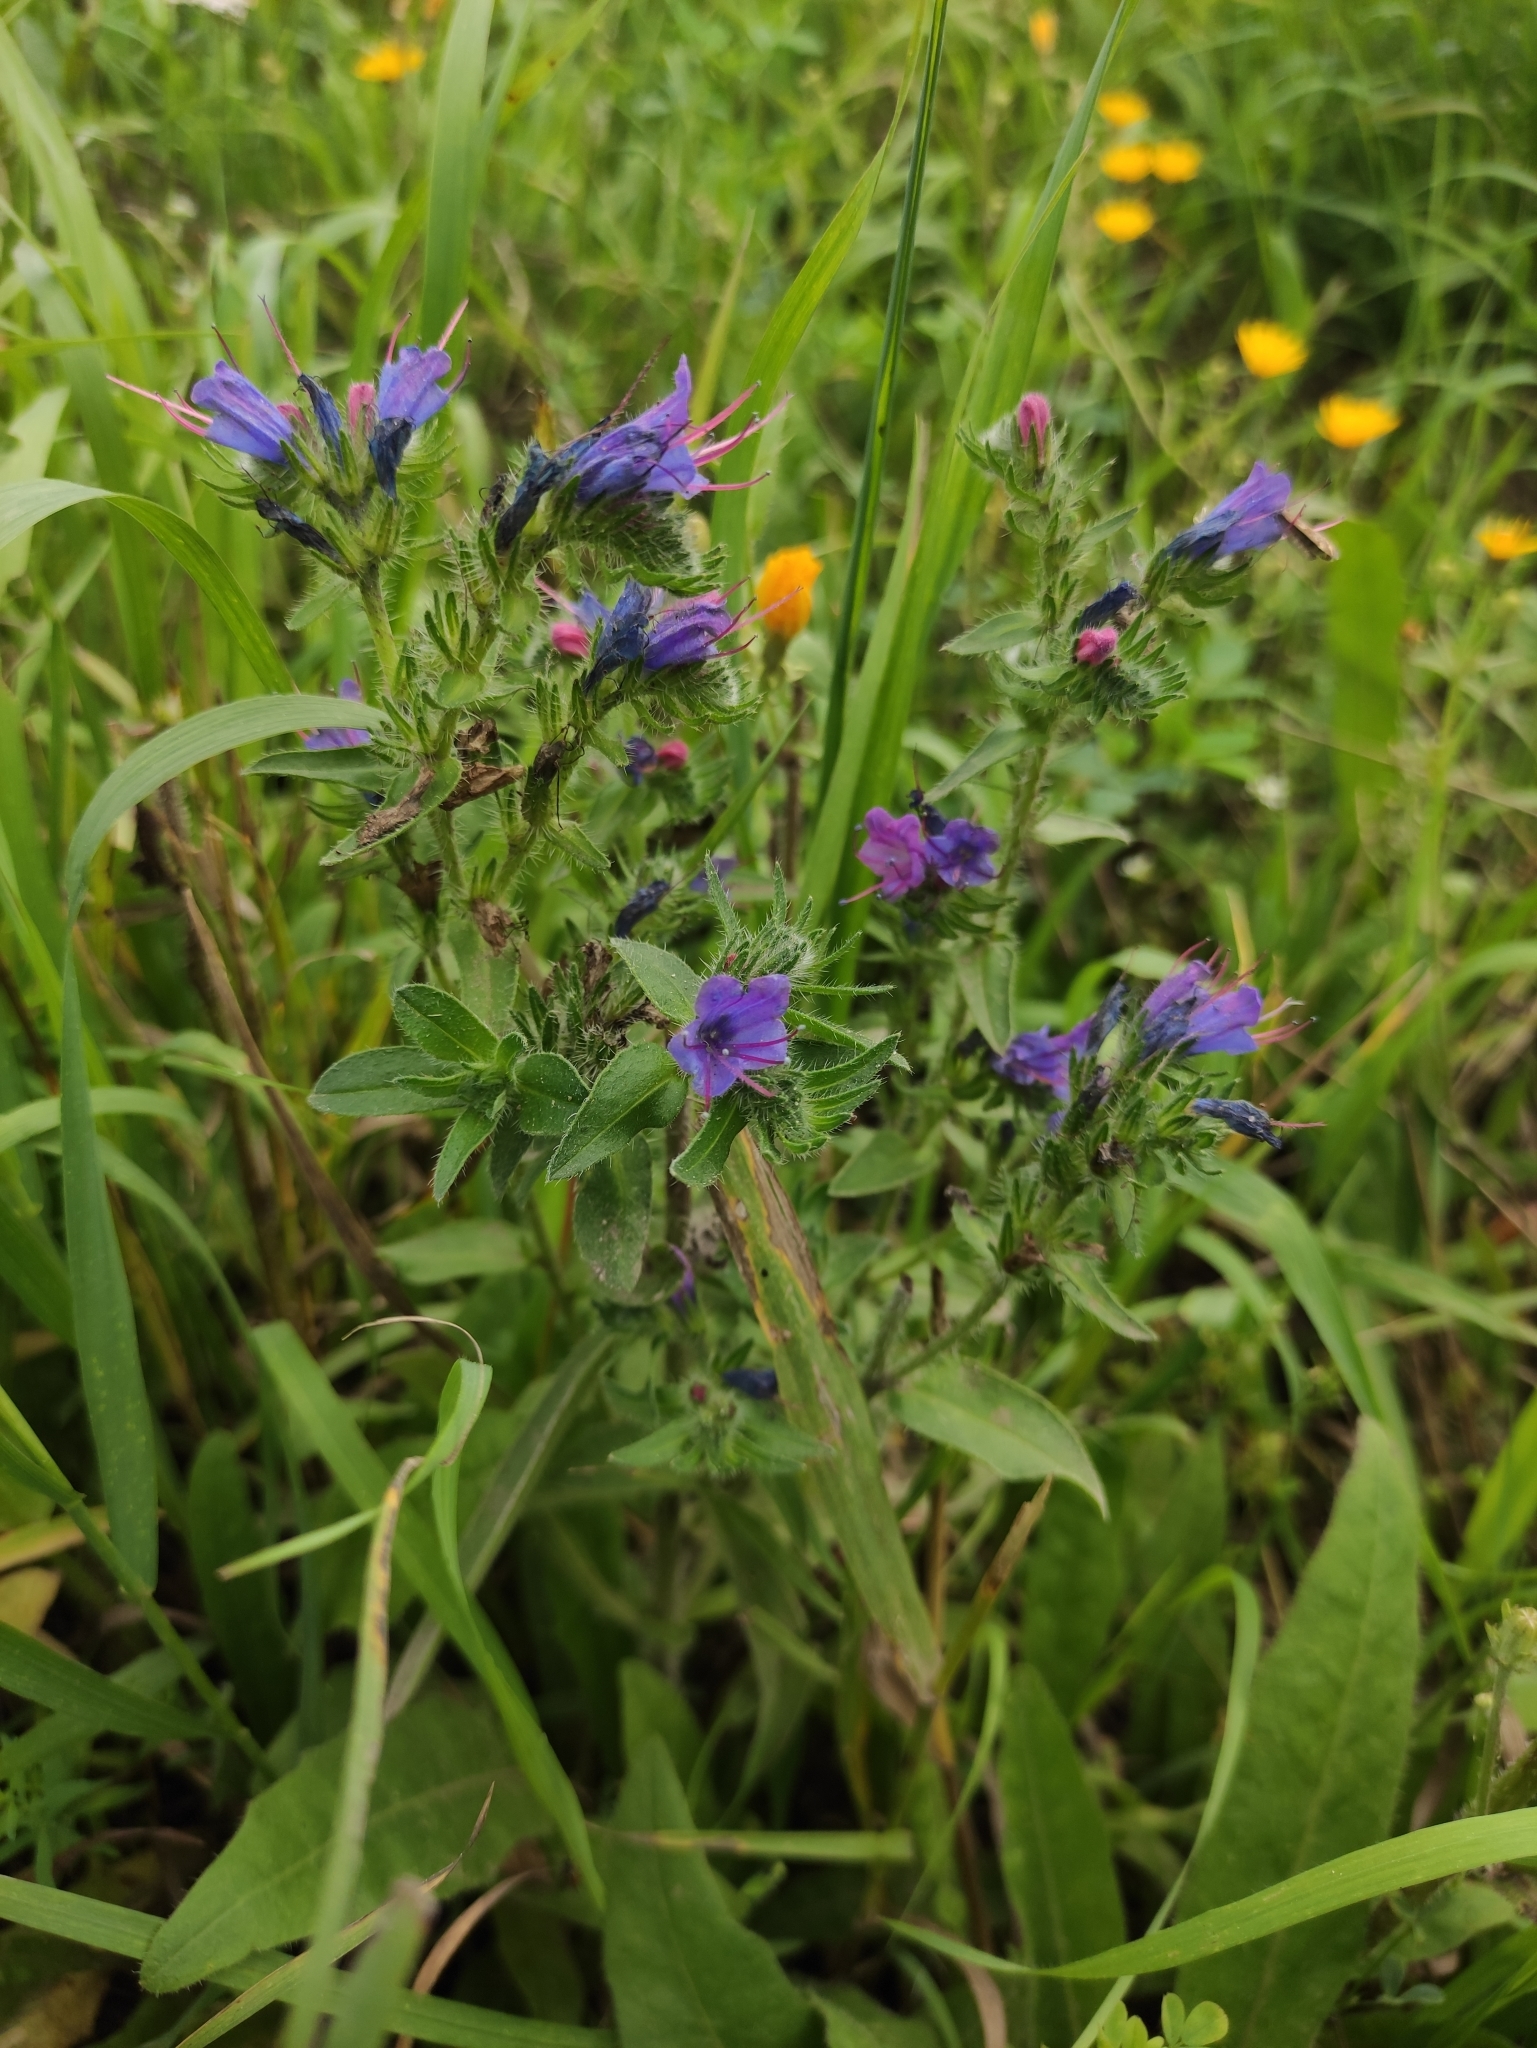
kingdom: Plantae
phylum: Tracheophyta
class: Magnoliopsida
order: Boraginales
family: Boraginaceae
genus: Echium
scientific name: Echium vulgare
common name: Common viper's bugloss
